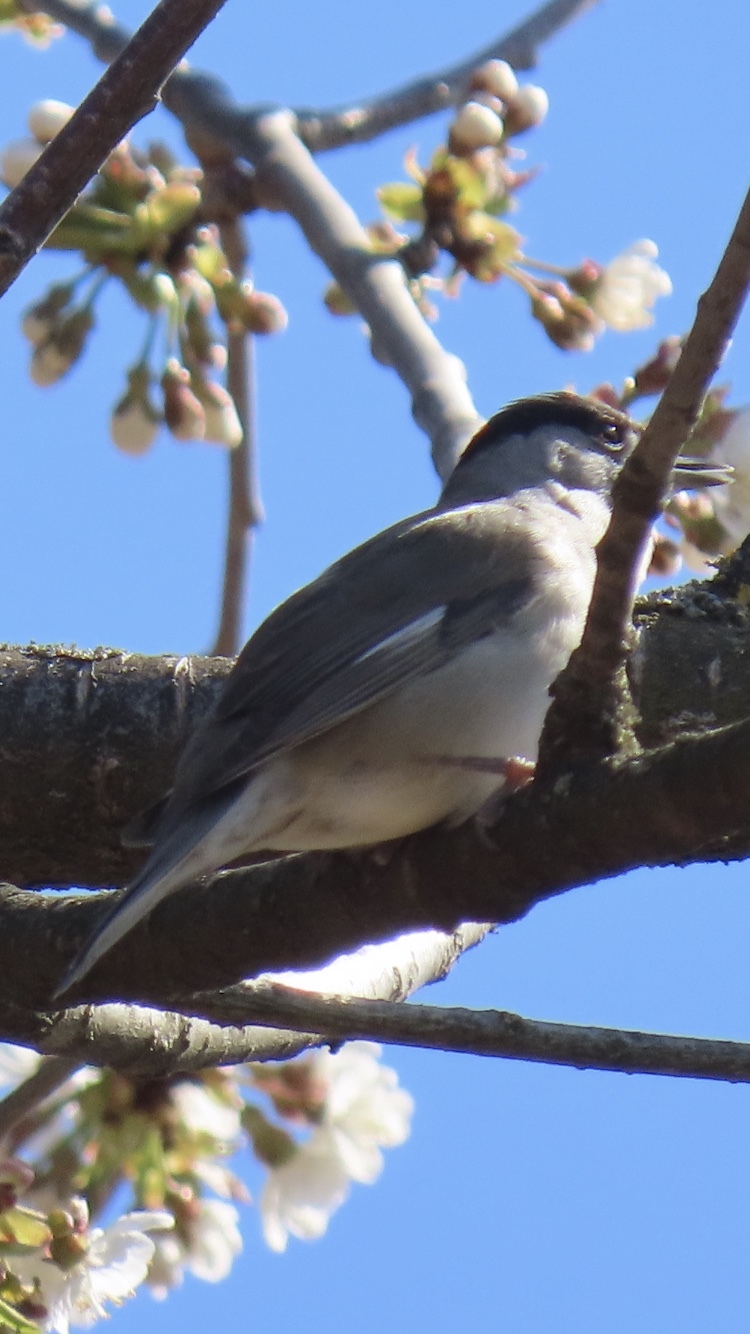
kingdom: Animalia
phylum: Chordata
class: Aves
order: Passeriformes
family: Sylviidae
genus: Sylvia
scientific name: Sylvia atricapilla
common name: Eurasian blackcap
